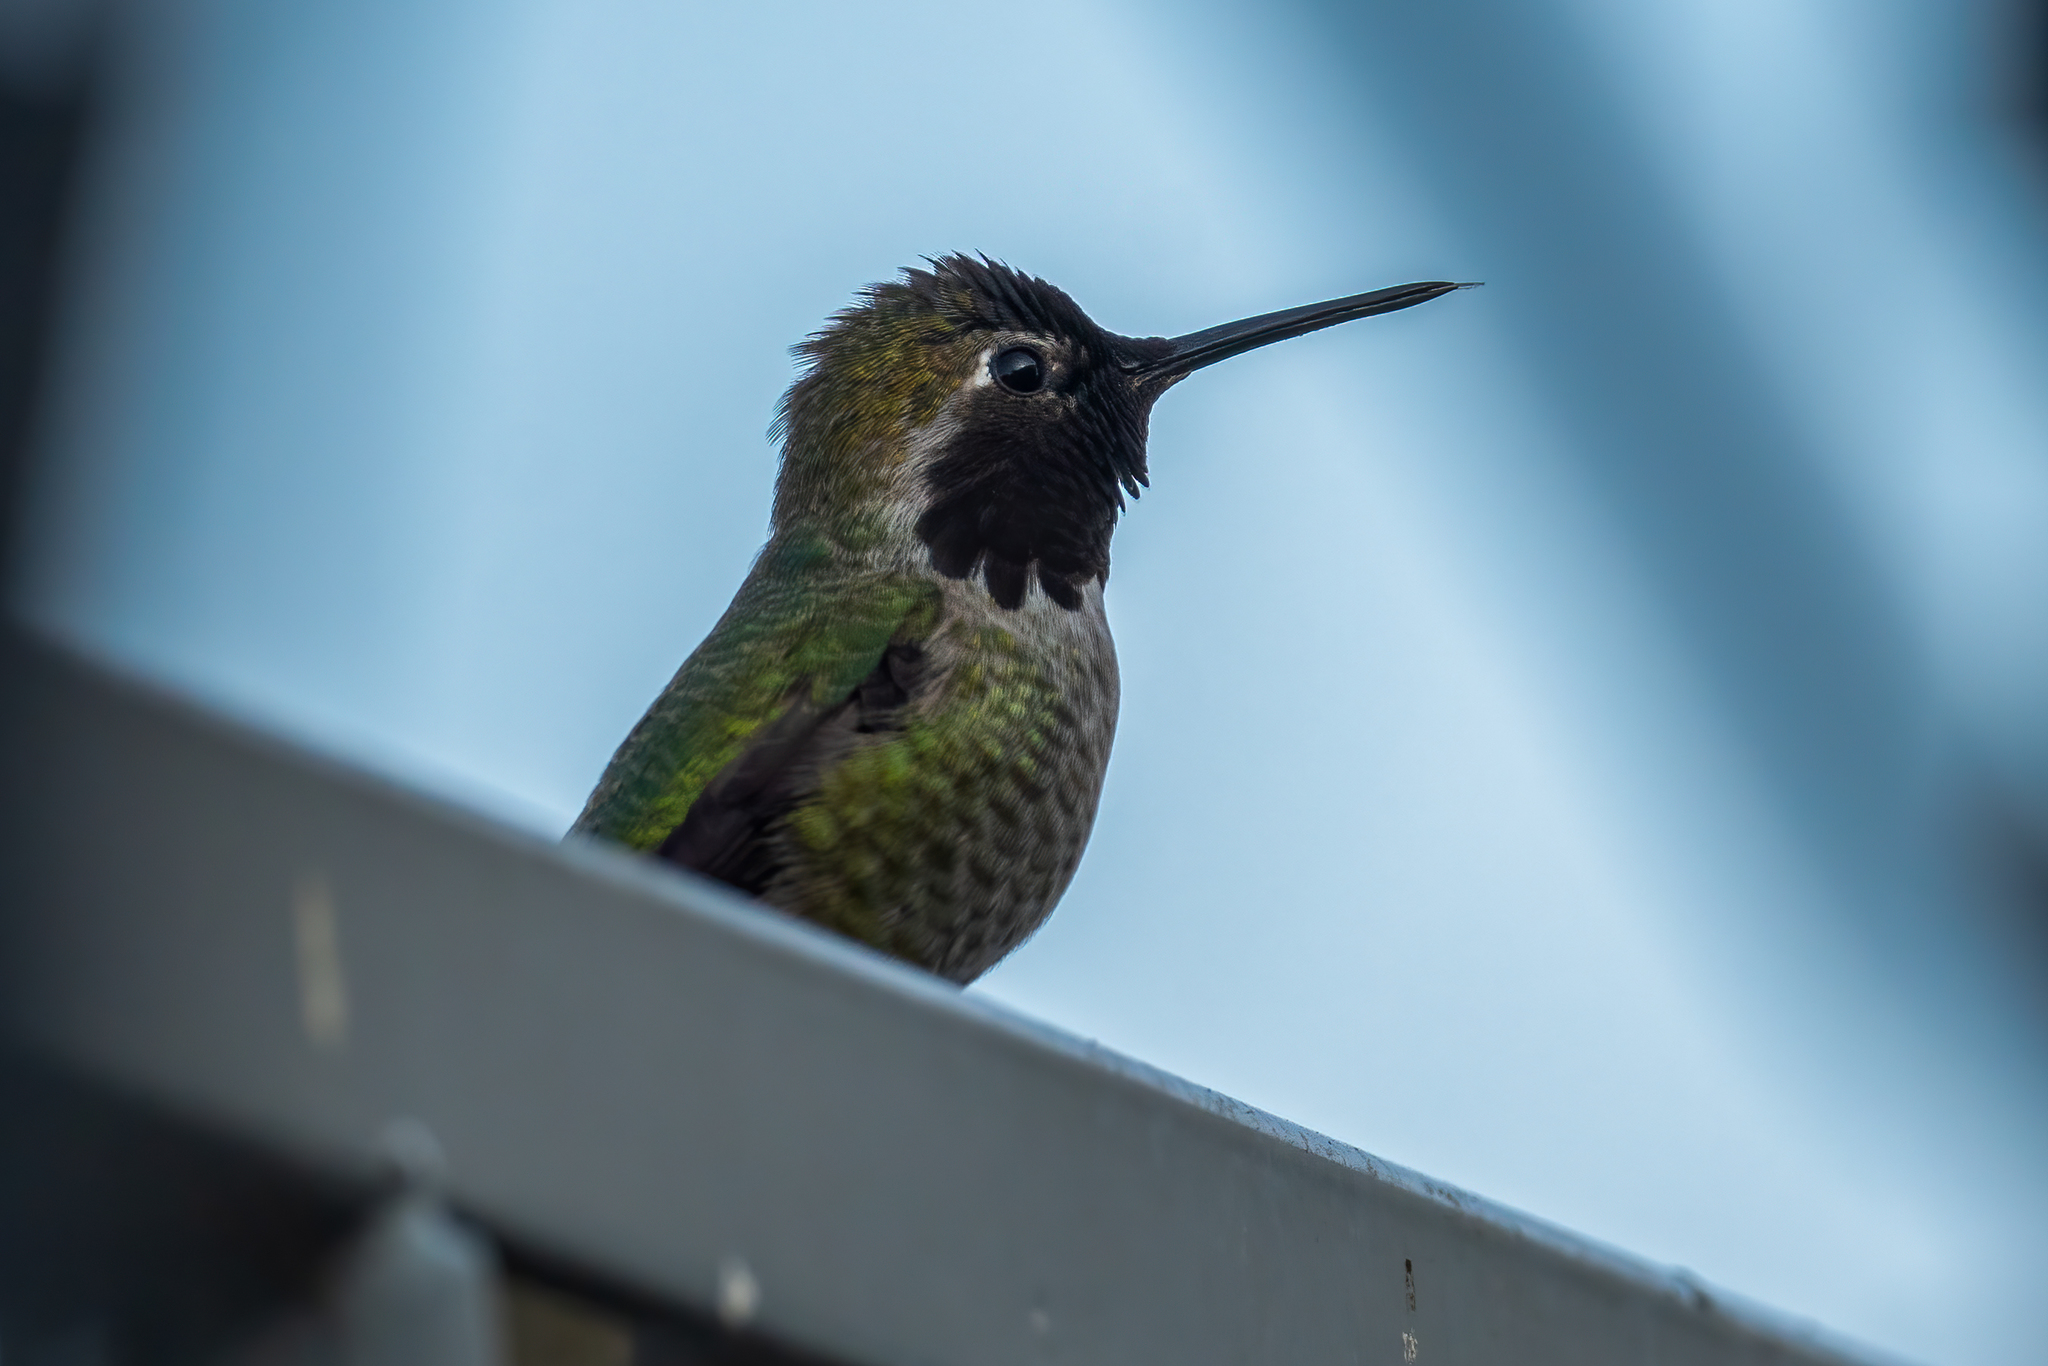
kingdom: Animalia
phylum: Chordata
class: Aves
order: Apodiformes
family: Trochilidae
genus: Calypte
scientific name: Calypte anna
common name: Anna's hummingbird
